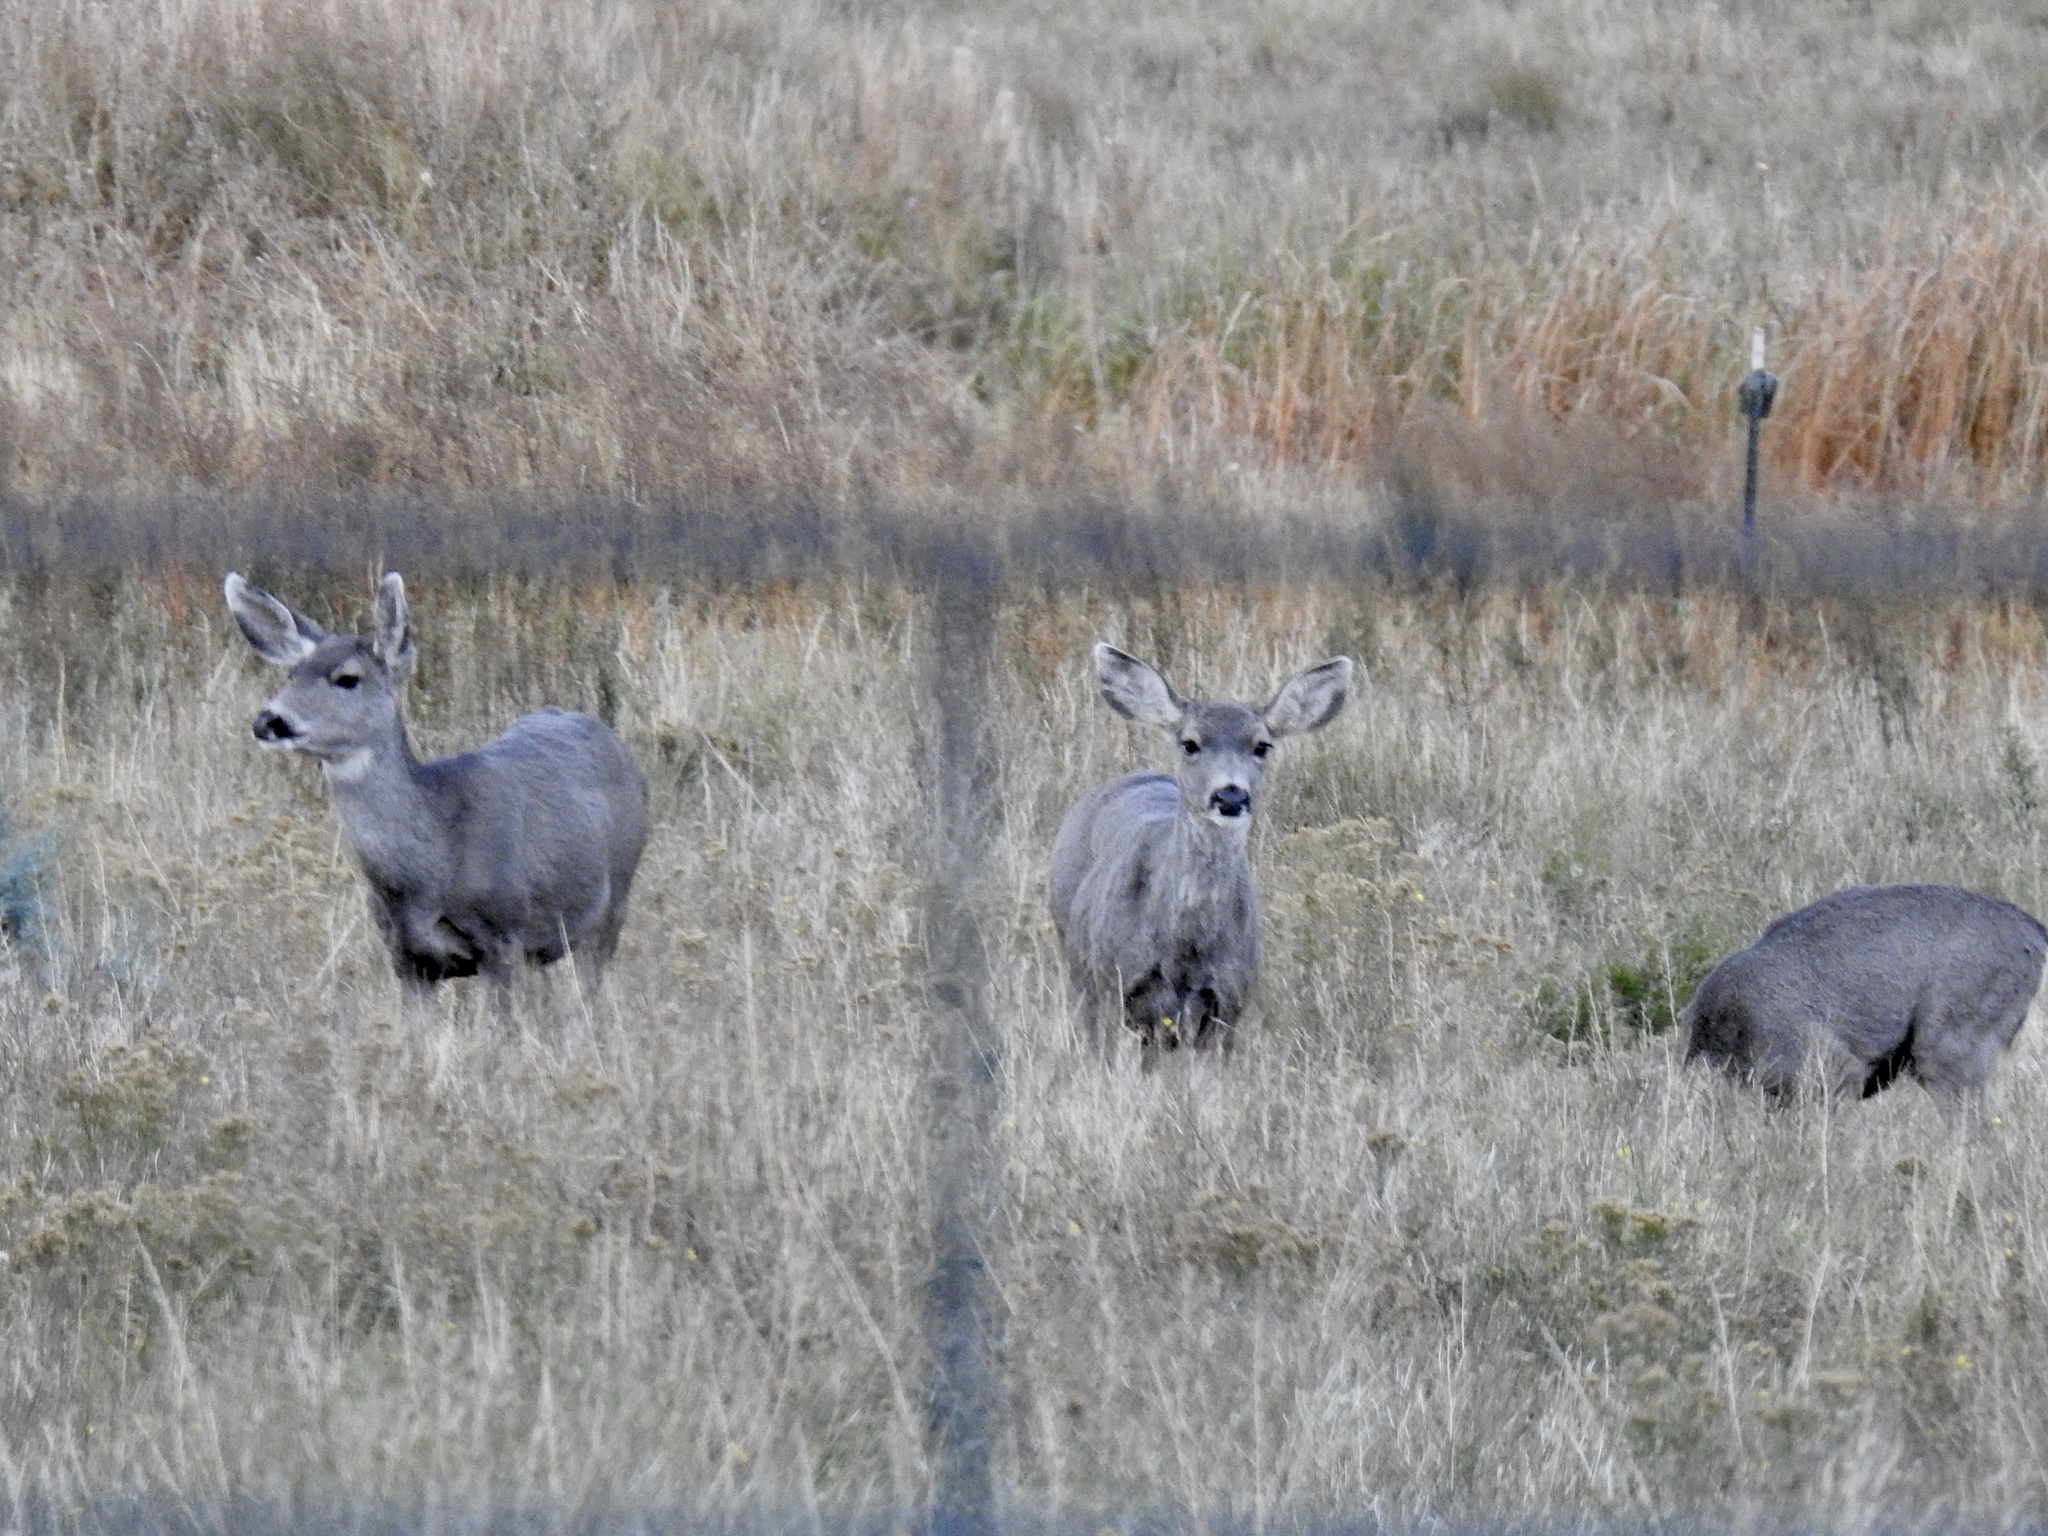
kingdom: Animalia
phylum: Chordata
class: Mammalia
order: Artiodactyla
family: Cervidae
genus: Odocoileus
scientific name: Odocoileus hemionus
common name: Mule deer
